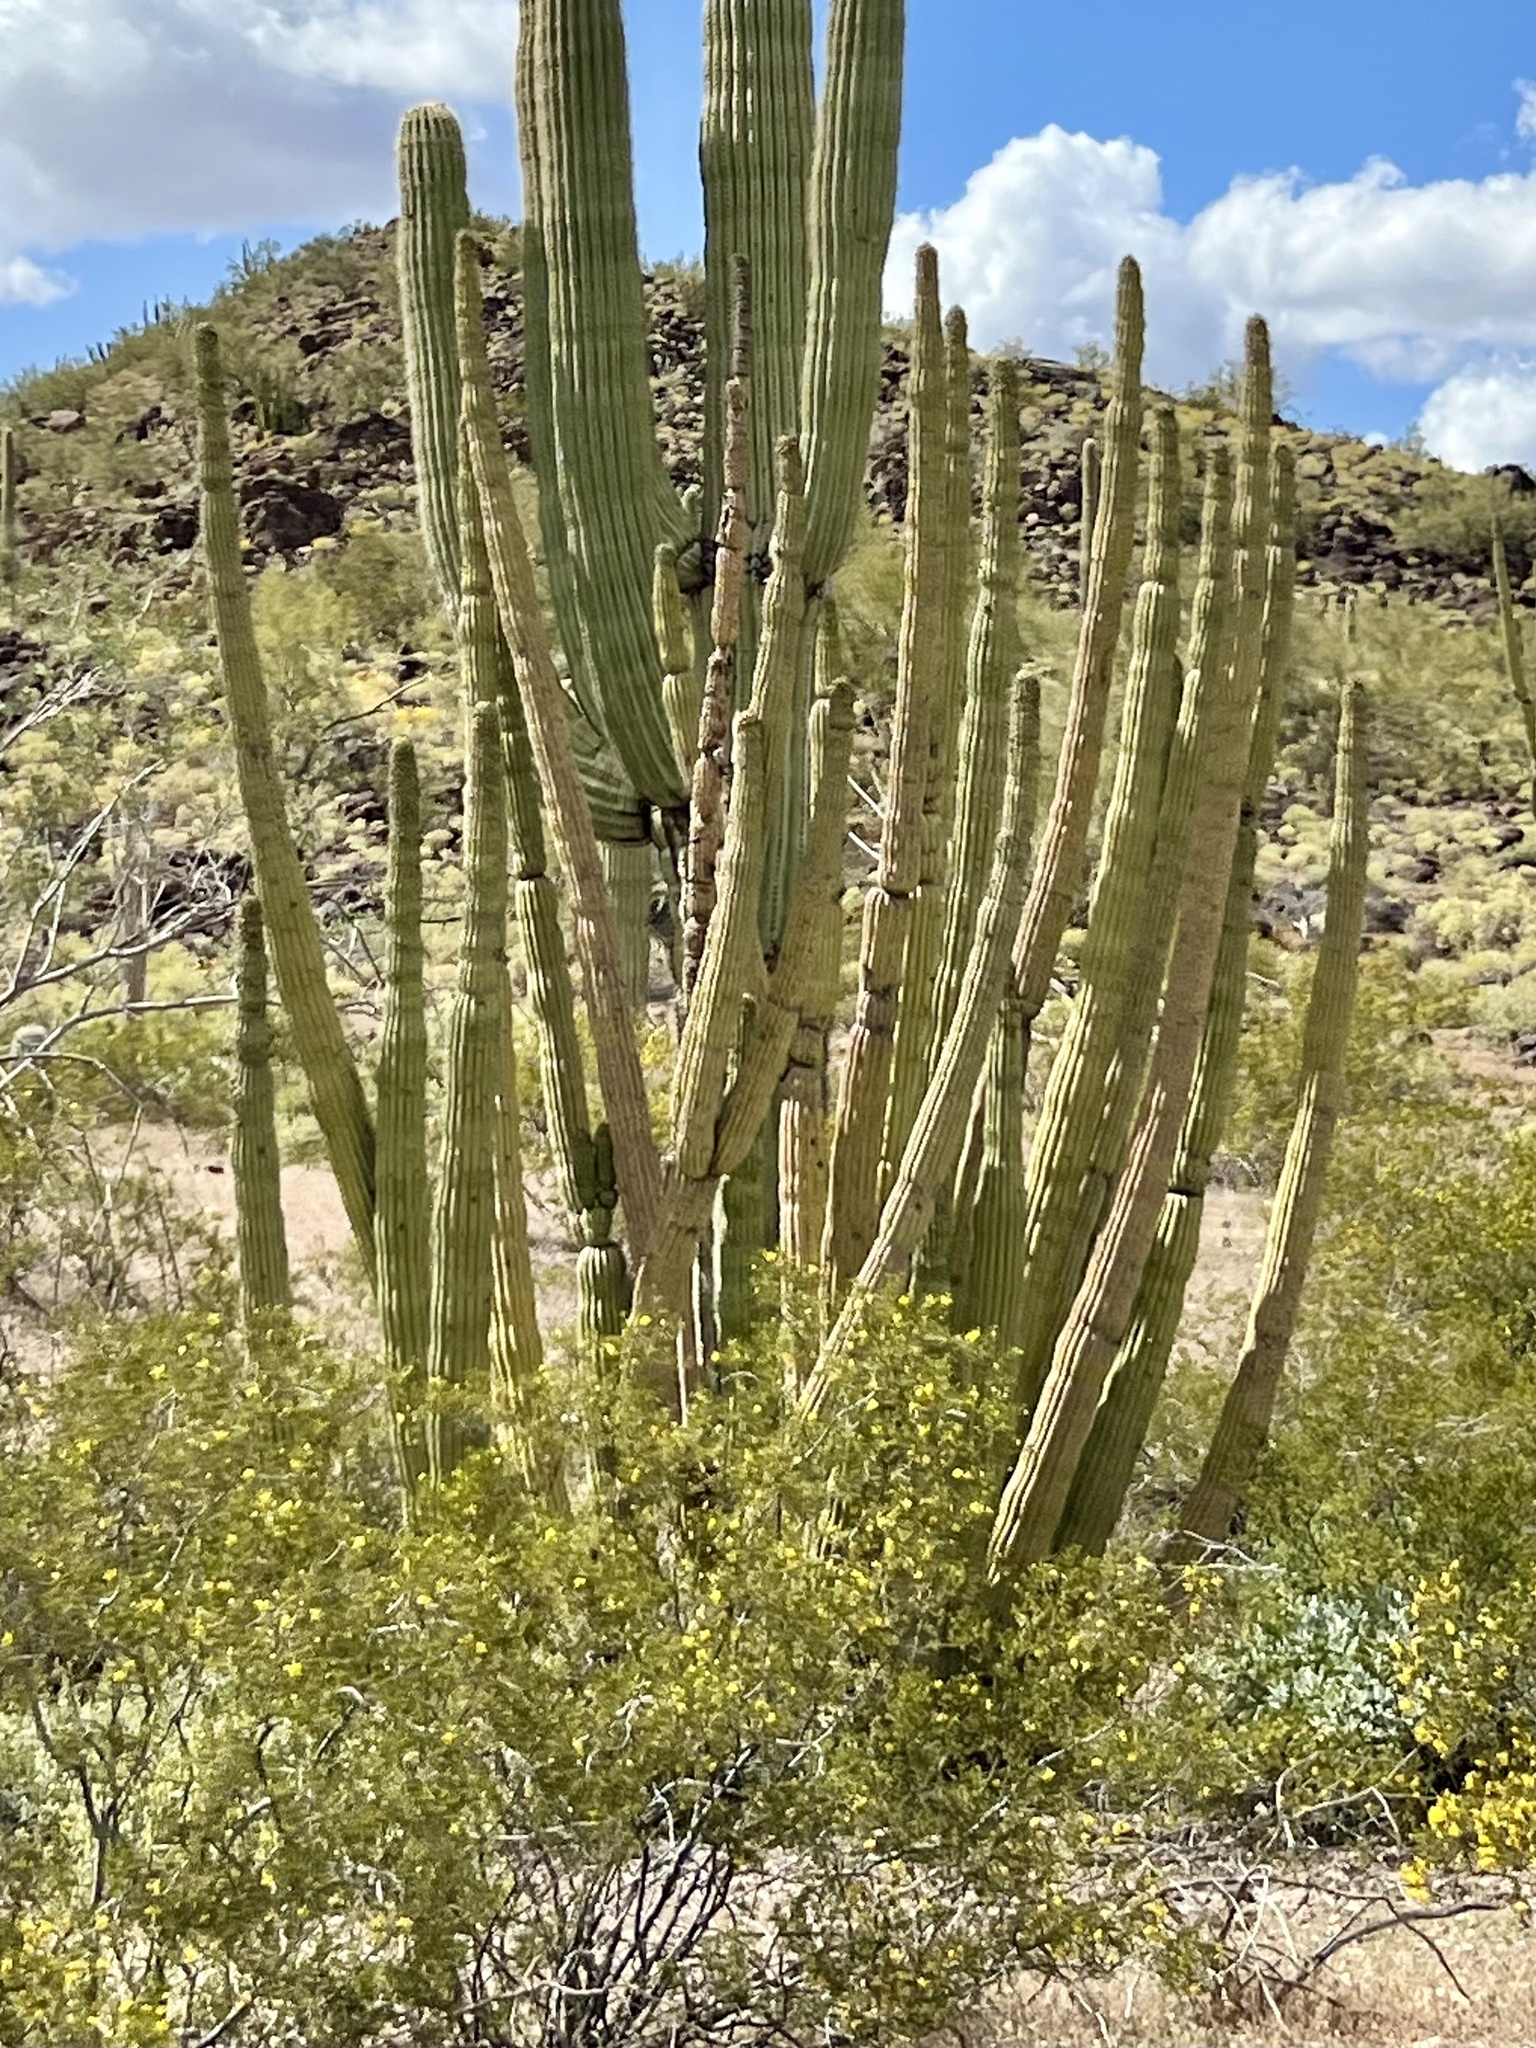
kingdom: Plantae
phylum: Tracheophyta
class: Magnoliopsida
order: Caryophyllales
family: Cactaceae
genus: Stenocereus
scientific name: Stenocereus thurberi
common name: Organ pipe cactus
